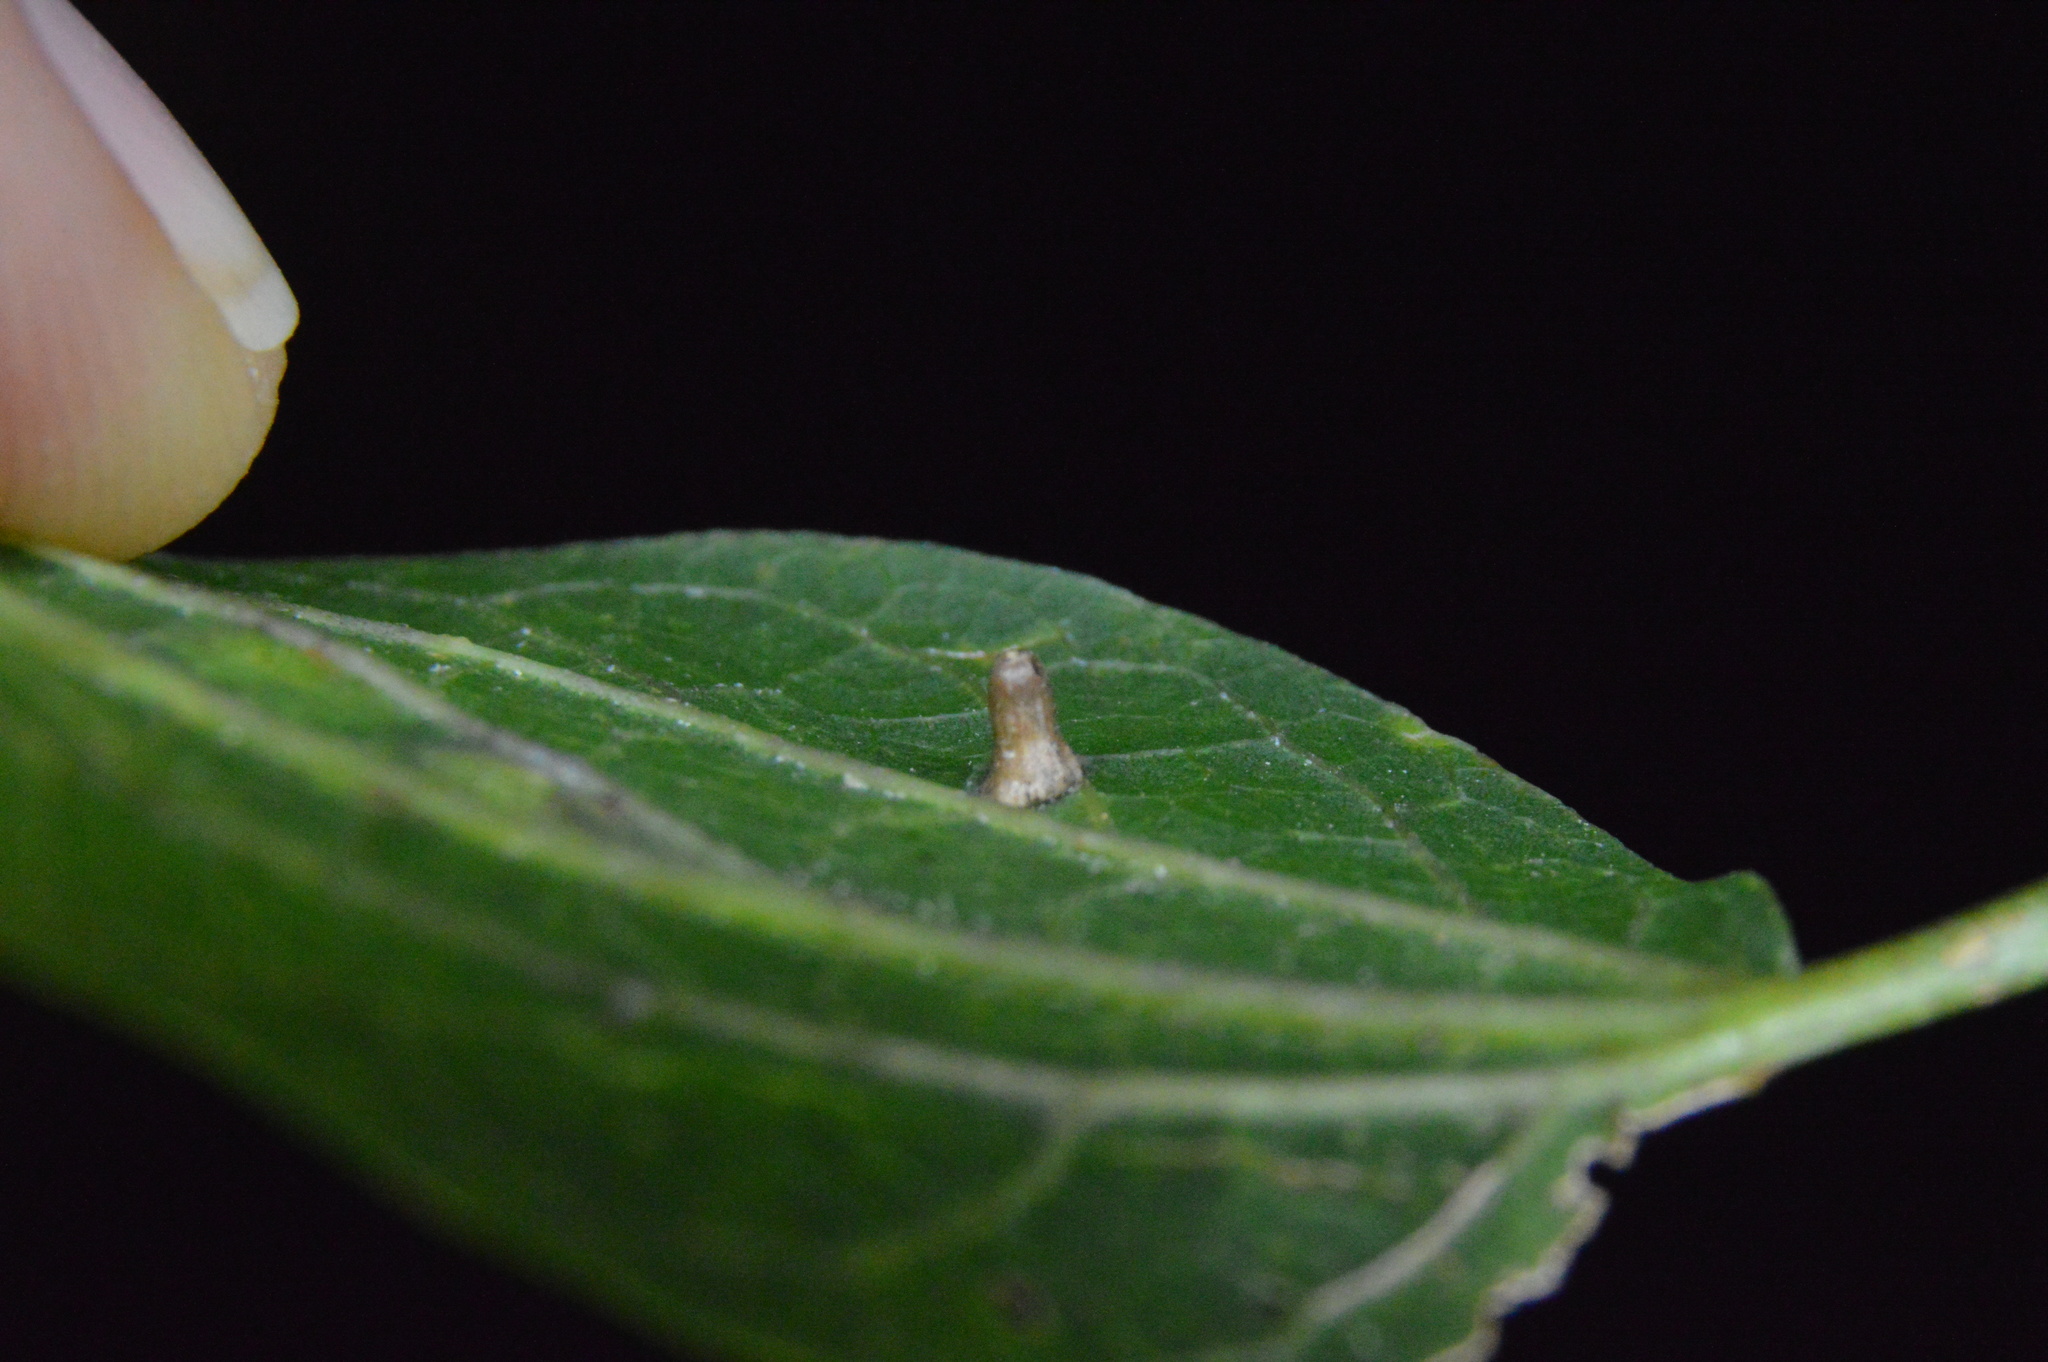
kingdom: Animalia
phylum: Arthropoda
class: Insecta
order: Diptera
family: Cecidomyiidae
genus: Celticecis
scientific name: Celticecis aciculata
